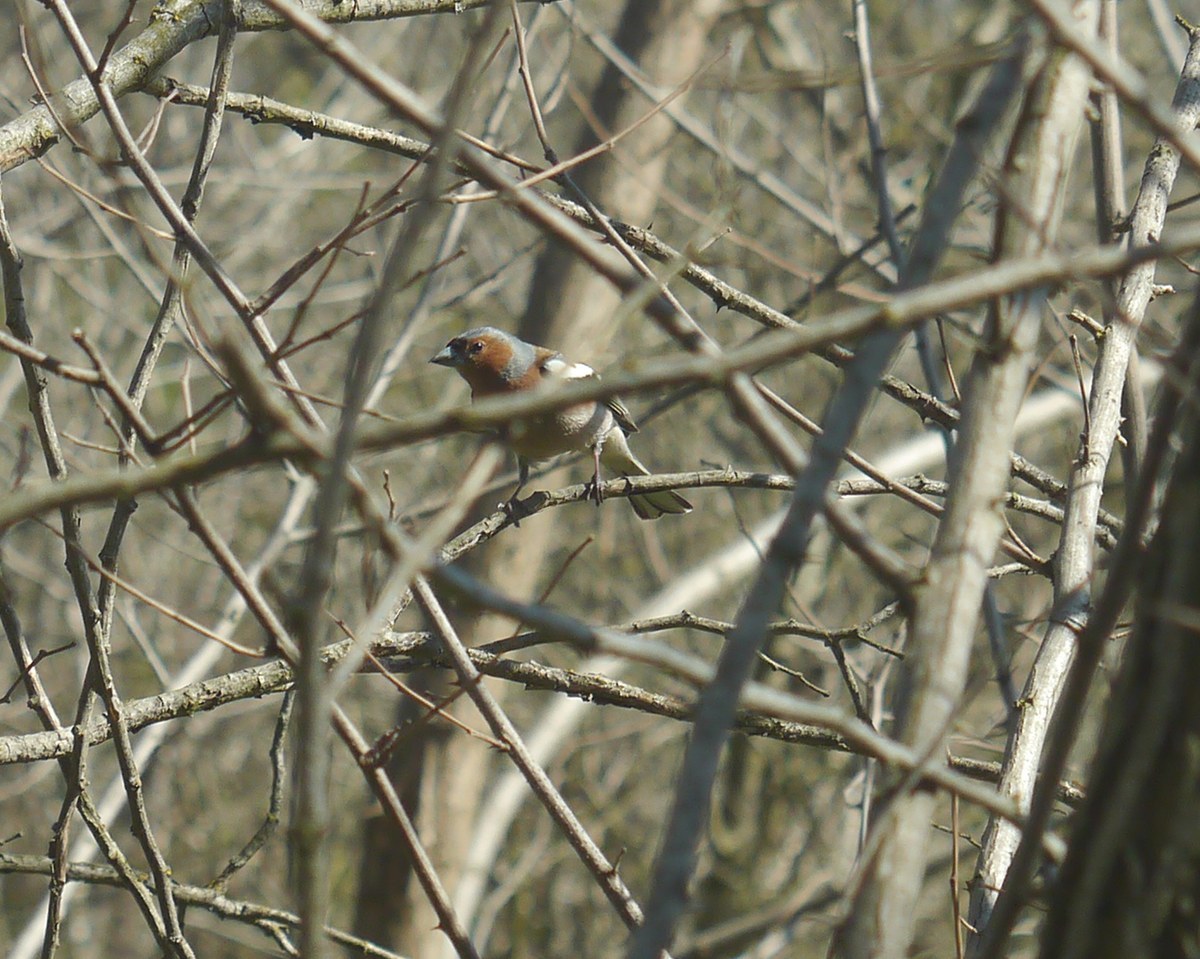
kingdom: Animalia
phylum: Chordata
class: Aves
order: Passeriformes
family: Fringillidae
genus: Fringilla
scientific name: Fringilla coelebs
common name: Common chaffinch
